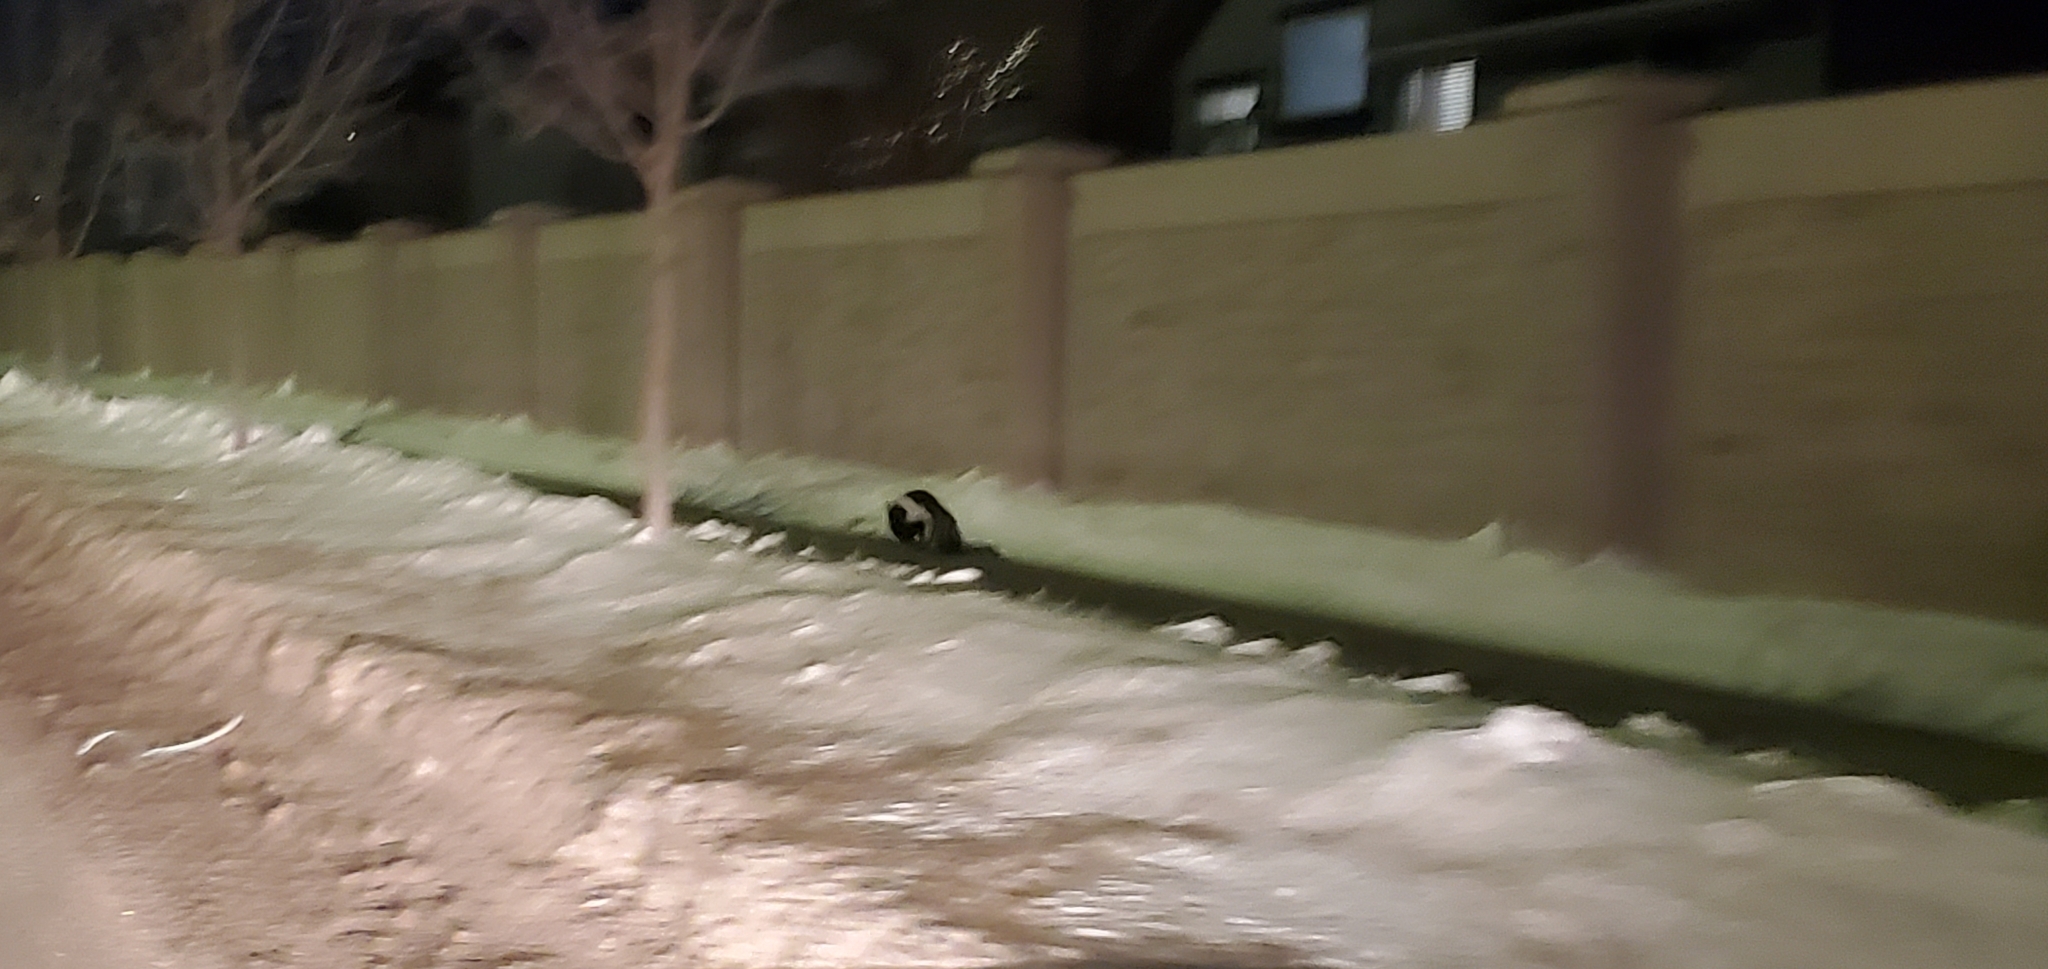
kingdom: Animalia
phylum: Chordata
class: Mammalia
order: Carnivora
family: Mephitidae
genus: Mephitis
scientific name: Mephitis mephitis
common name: Striped skunk
